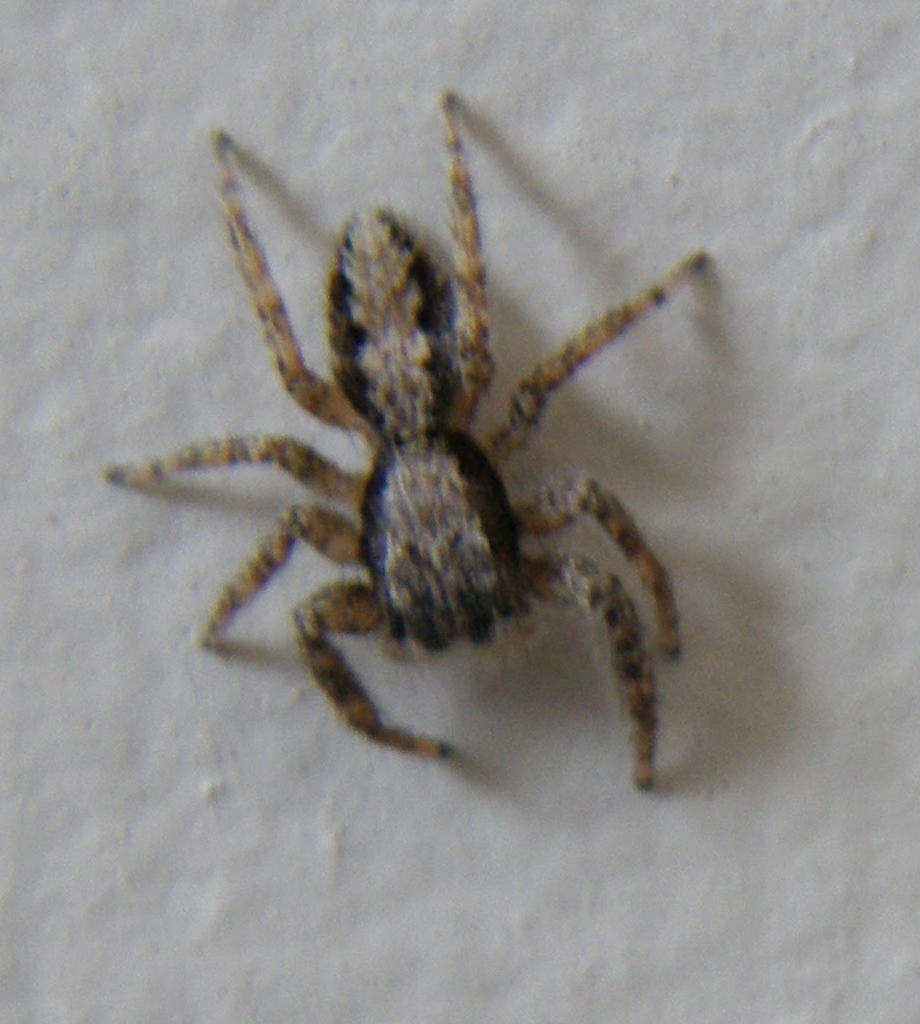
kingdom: Animalia
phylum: Arthropoda
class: Arachnida
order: Araneae
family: Salticidae
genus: Platycryptus
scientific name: Platycryptus californicus
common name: Jumping spiders
